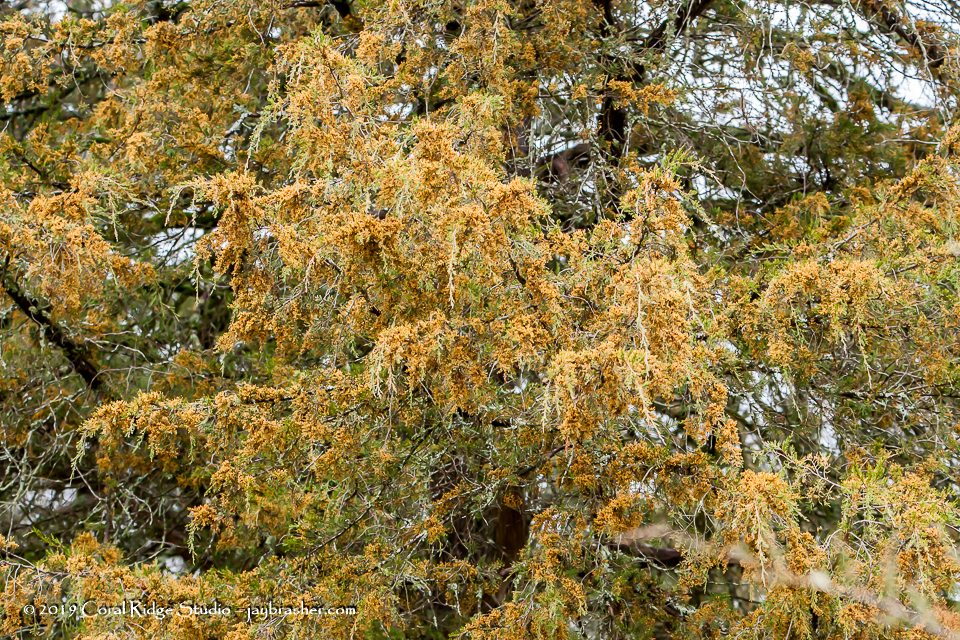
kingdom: Plantae
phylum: Tracheophyta
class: Pinopsida
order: Pinales
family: Cupressaceae
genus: Juniperus
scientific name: Juniperus virginiana
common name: Red juniper
